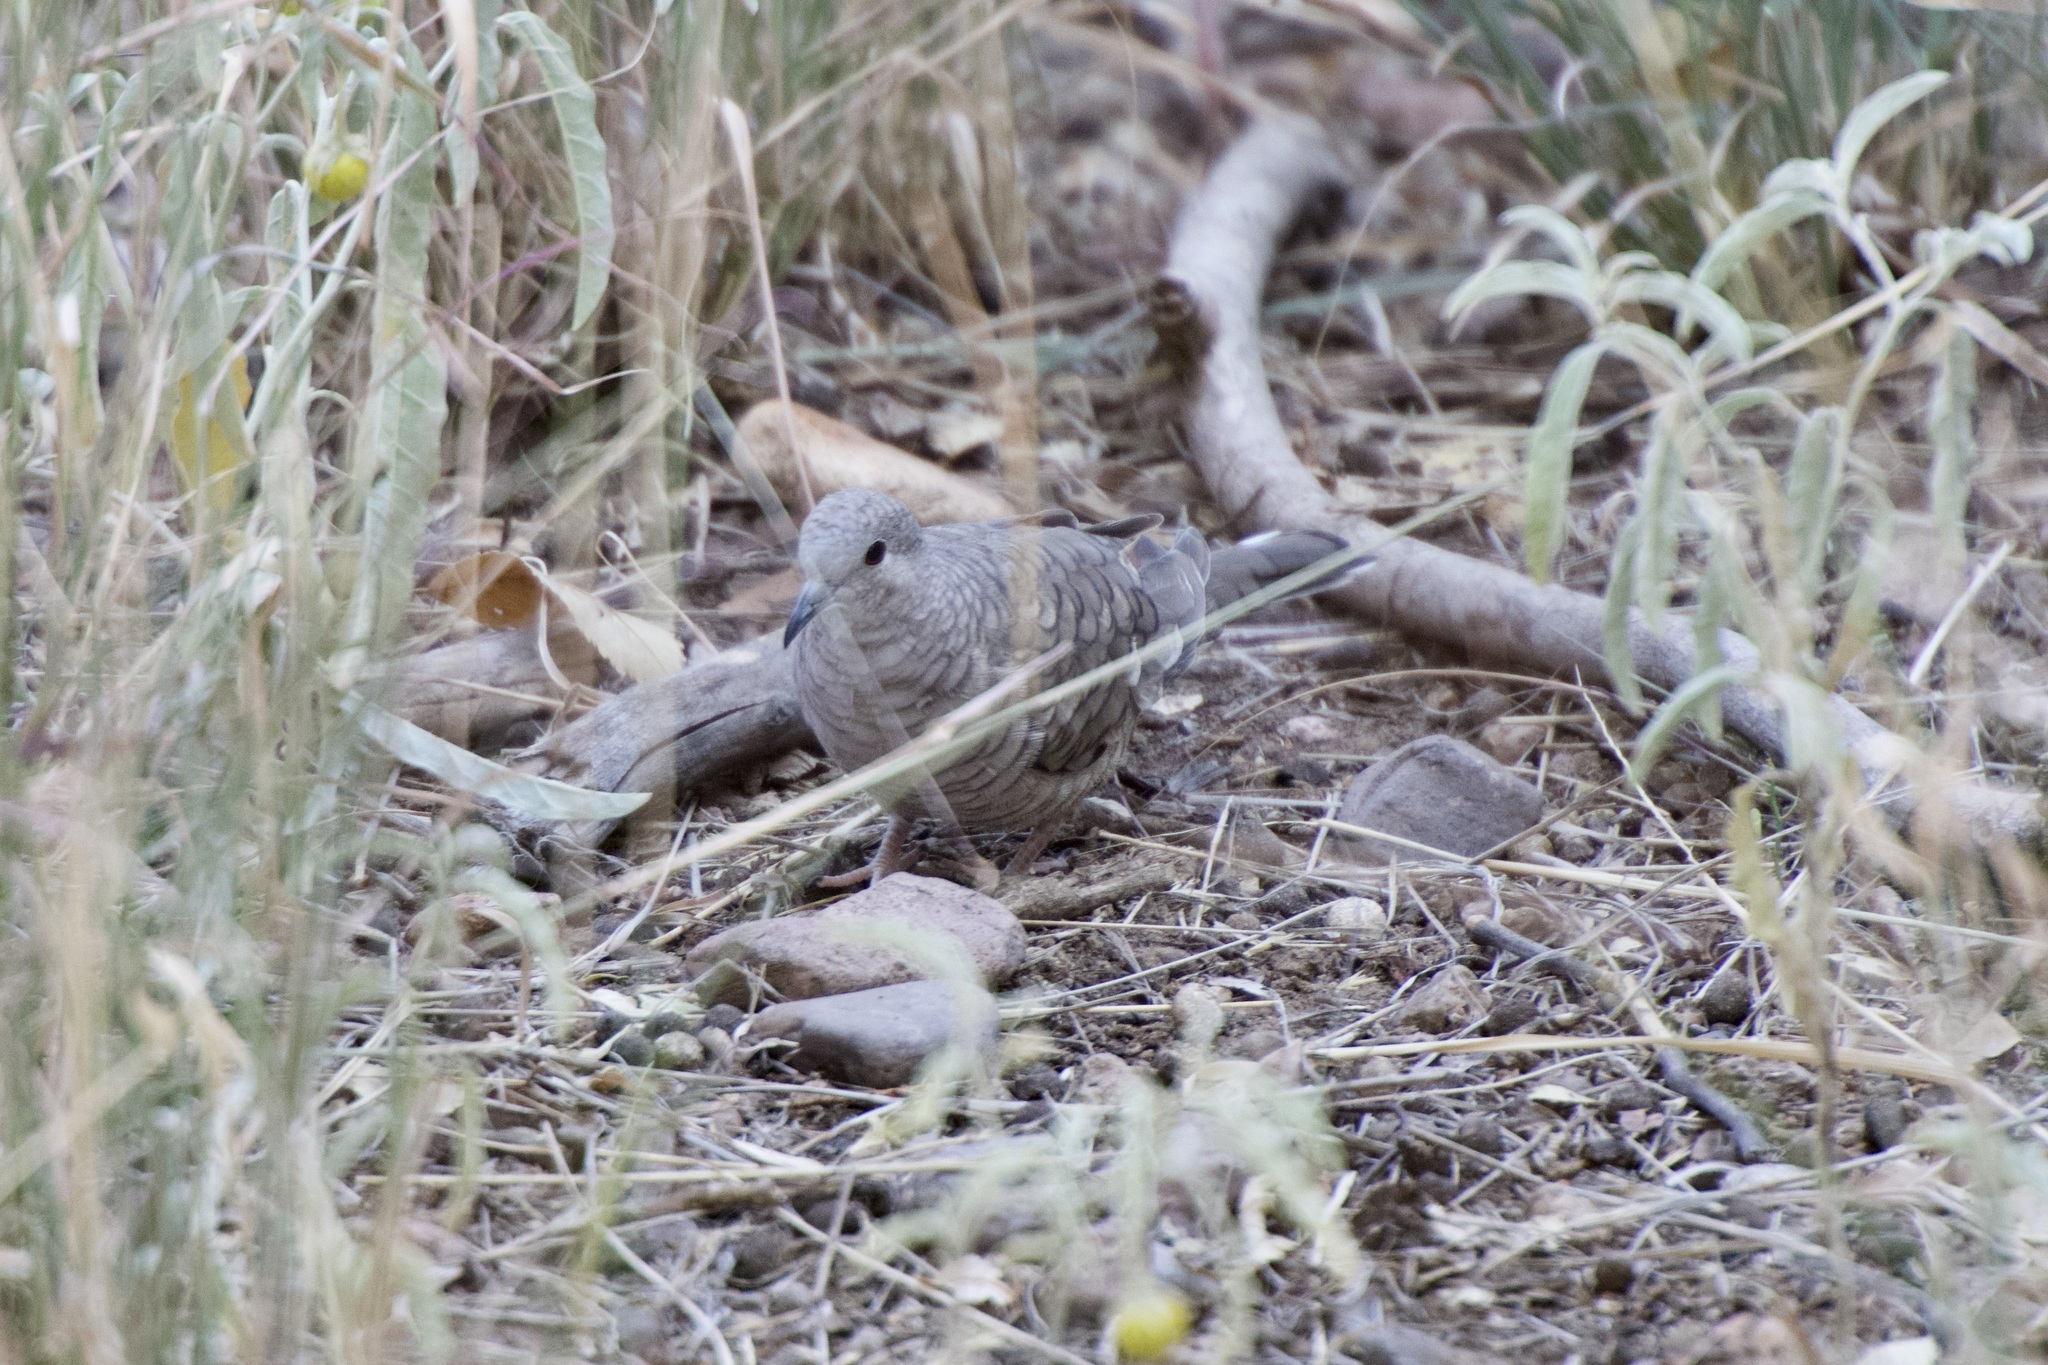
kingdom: Animalia
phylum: Chordata
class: Aves
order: Columbiformes
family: Columbidae
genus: Columbina
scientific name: Columbina inca
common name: Inca dove
